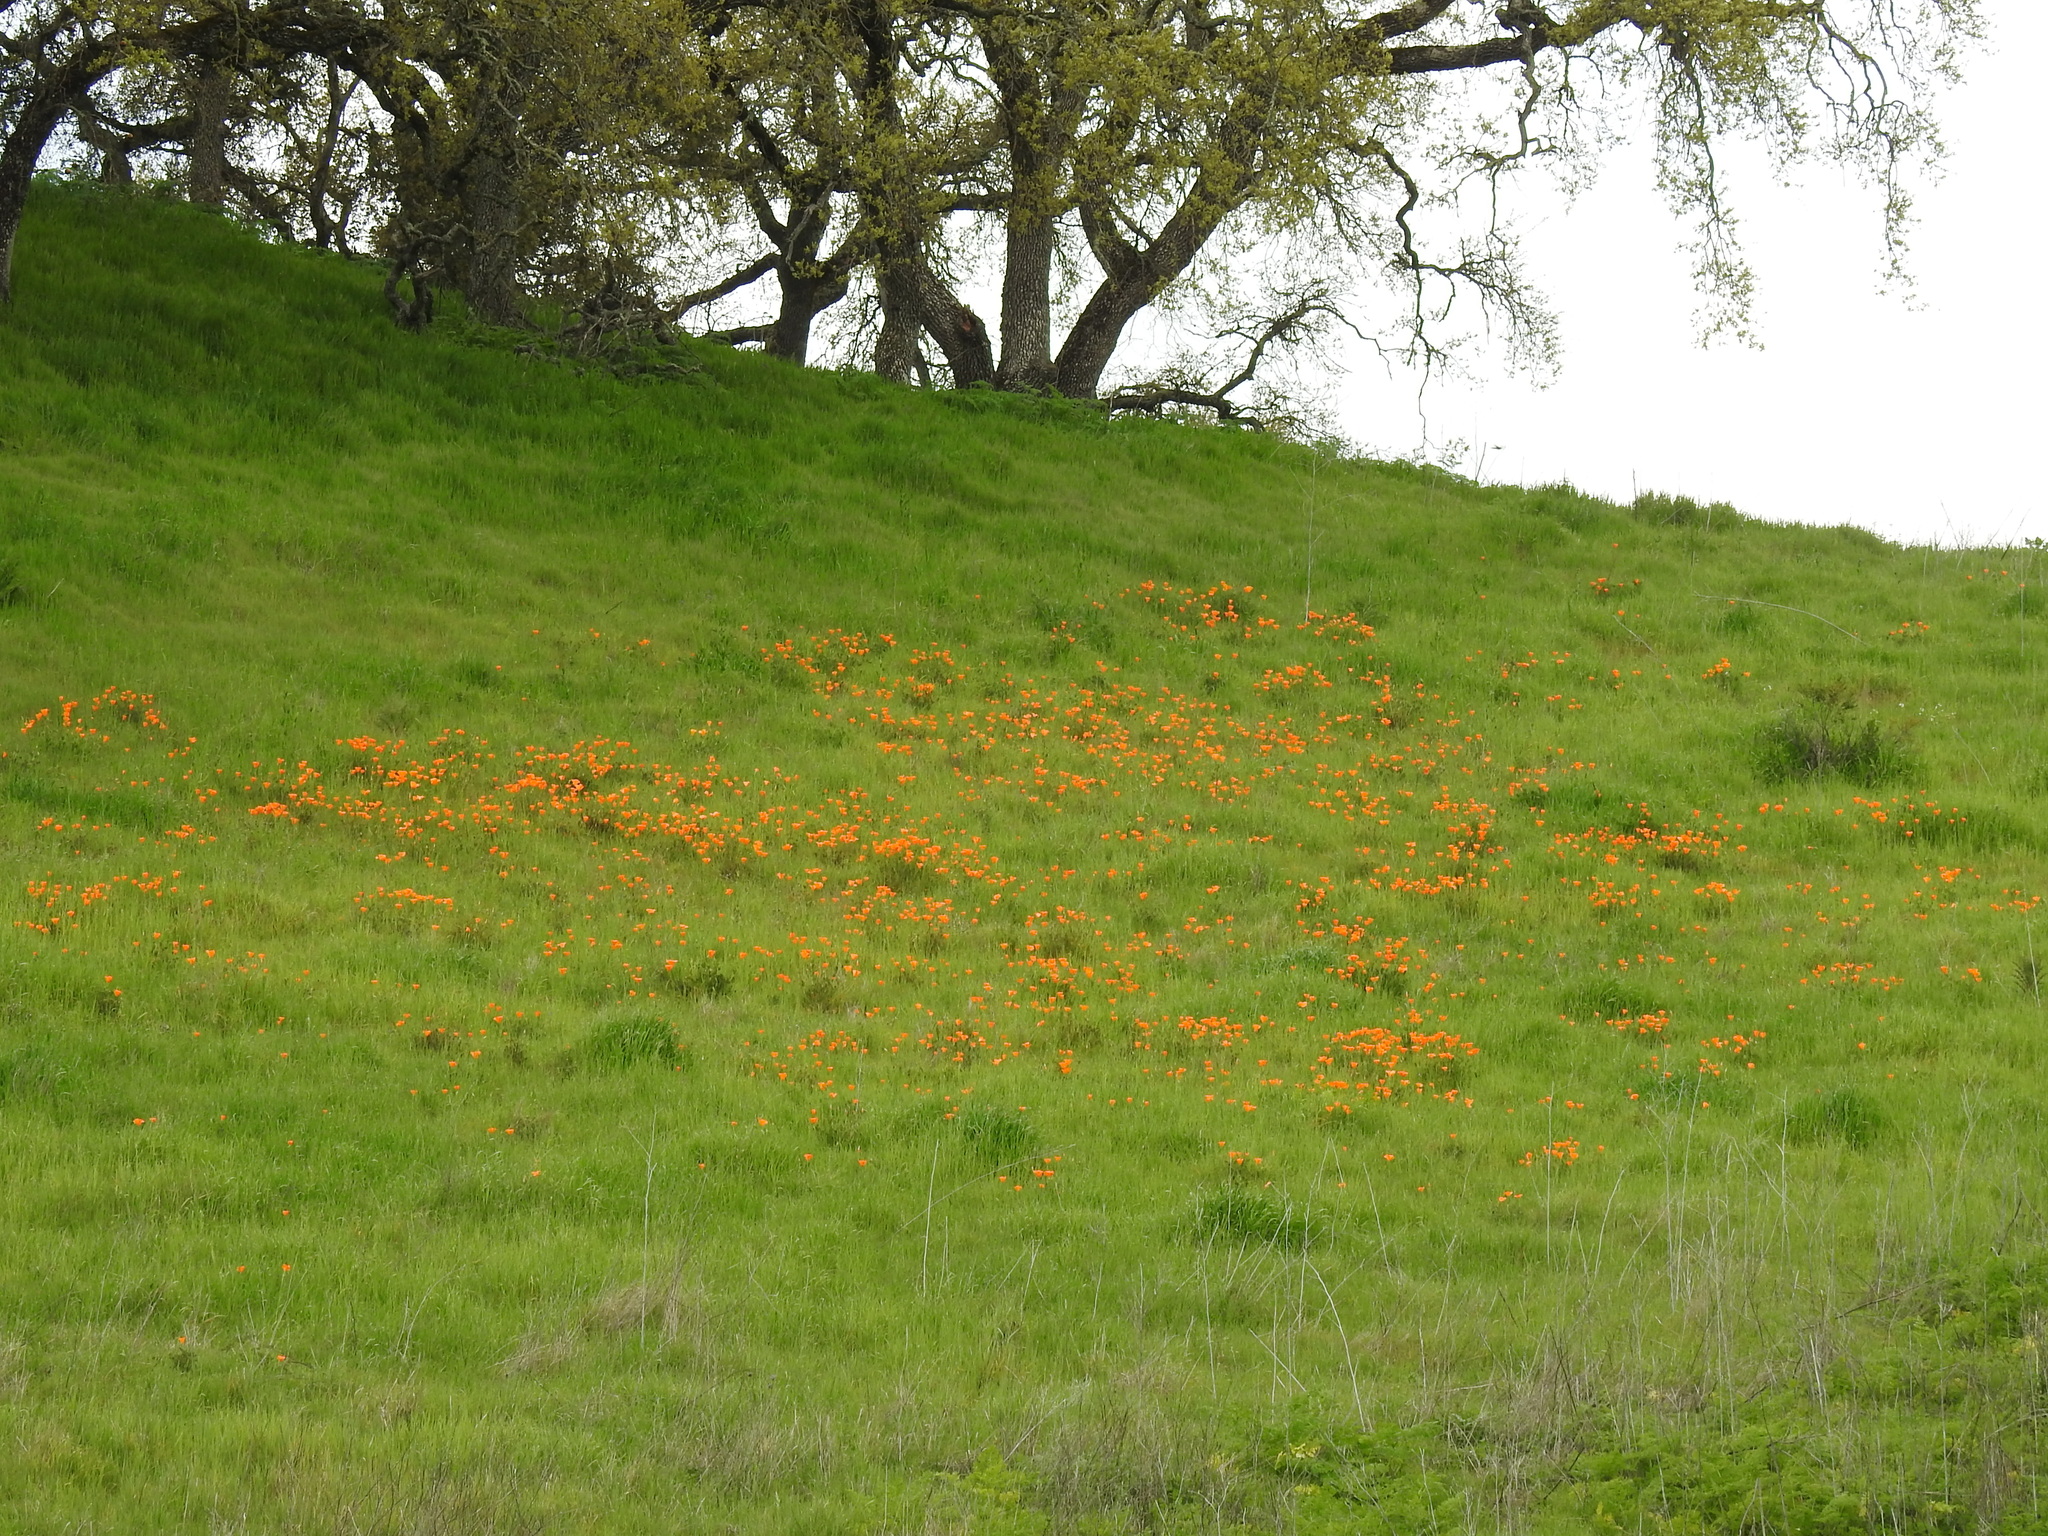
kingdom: Plantae
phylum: Tracheophyta
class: Magnoliopsida
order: Ranunculales
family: Papaveraceae
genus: Eschscholzia
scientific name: Eschscholzia californica
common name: California poppy
